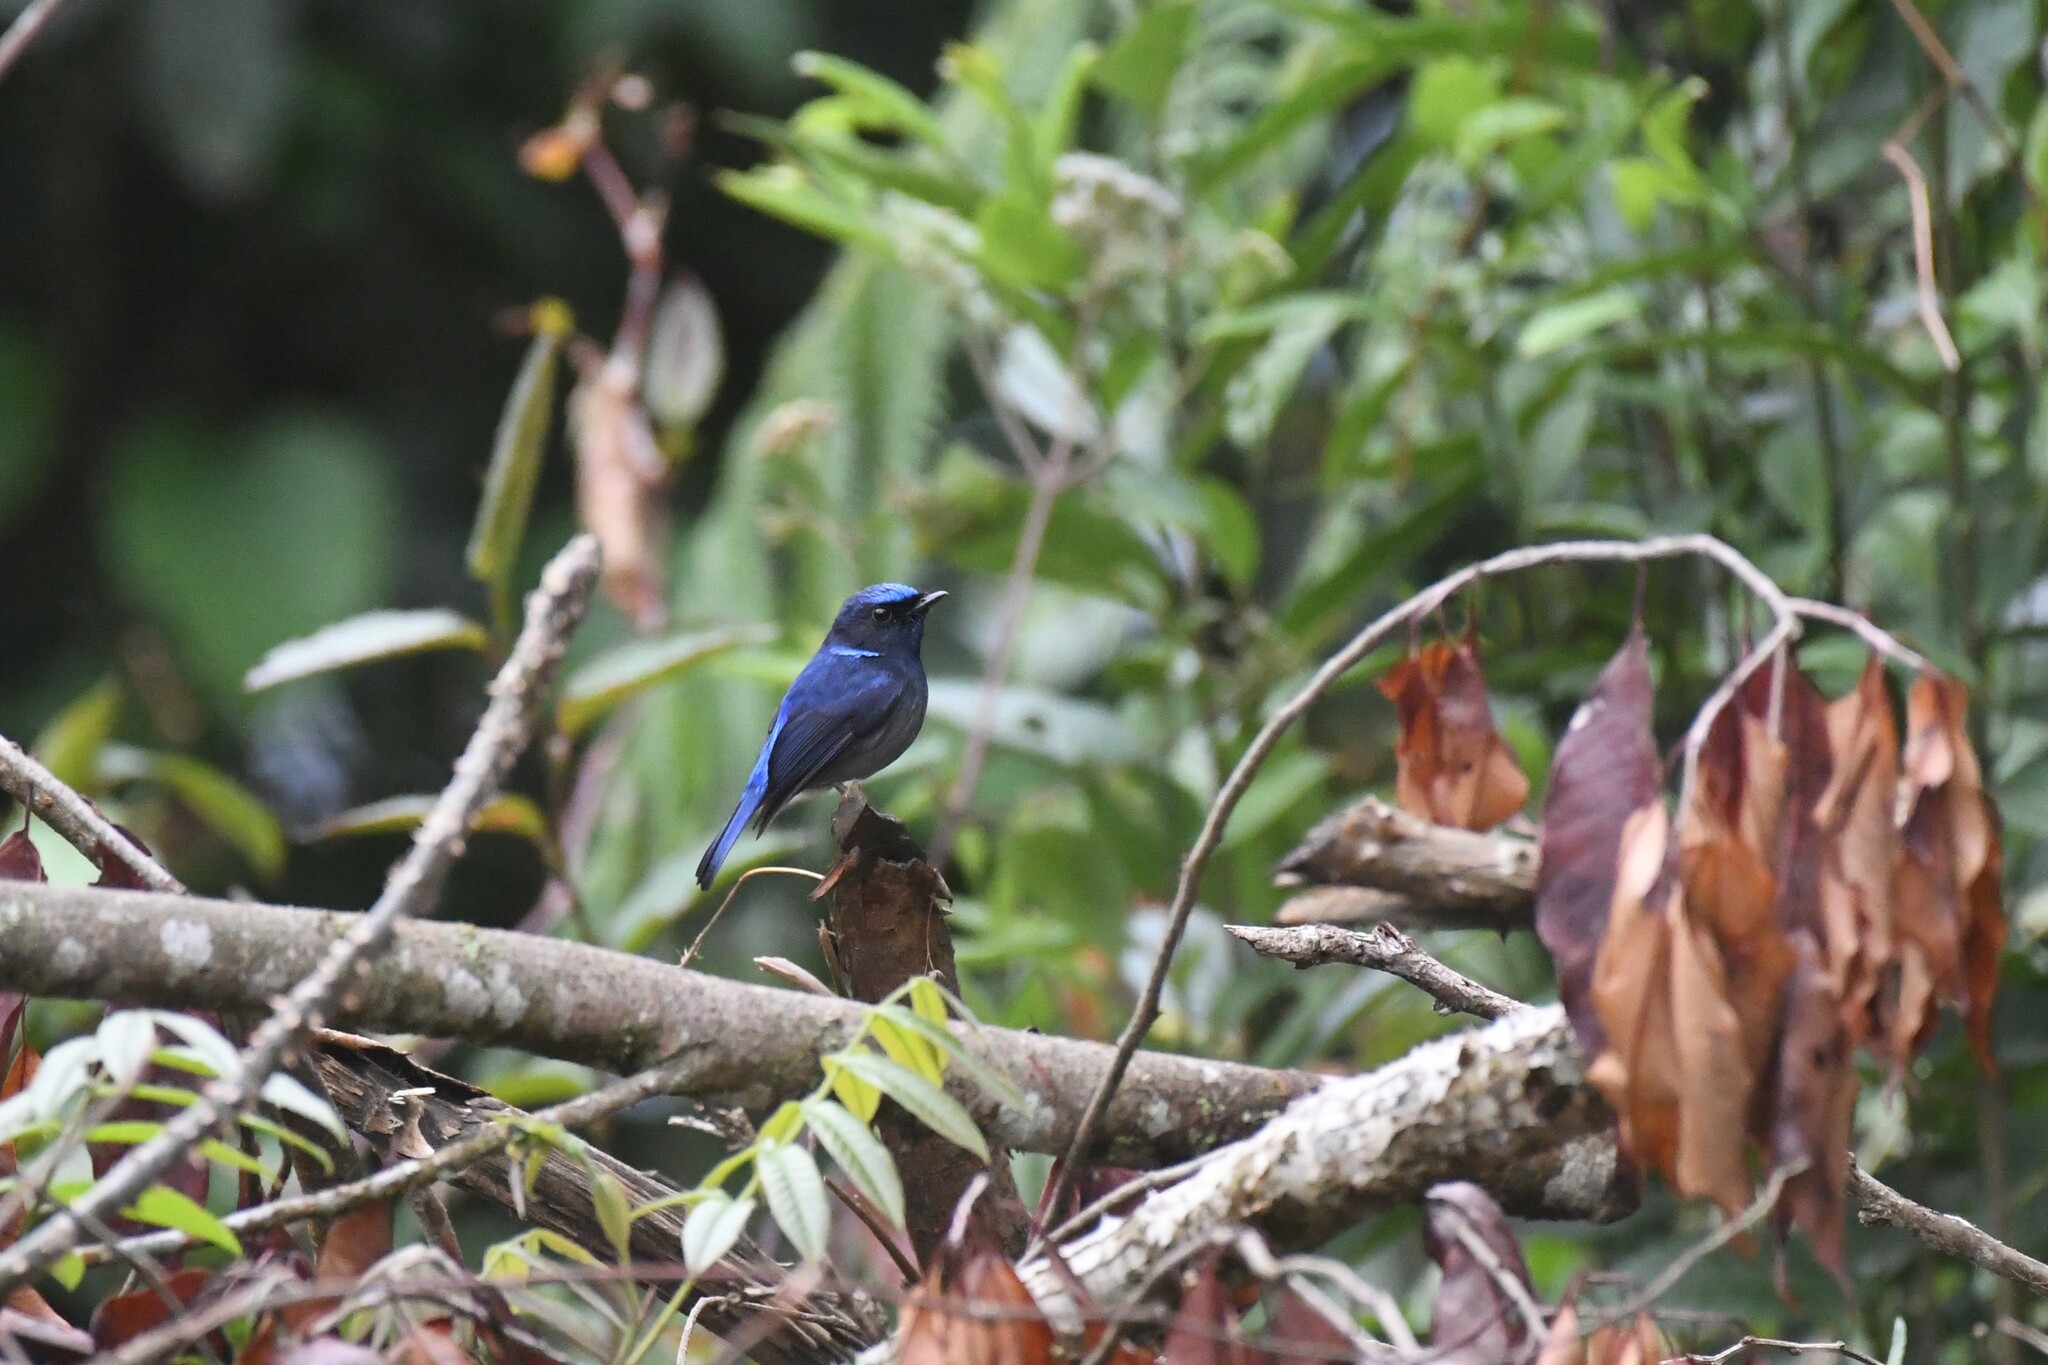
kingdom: Animalia
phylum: Chordata
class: Aves
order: Passeriformes
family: Muscicapidae
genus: Niltava
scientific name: Niltava macgrigoriae
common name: Small niltava
